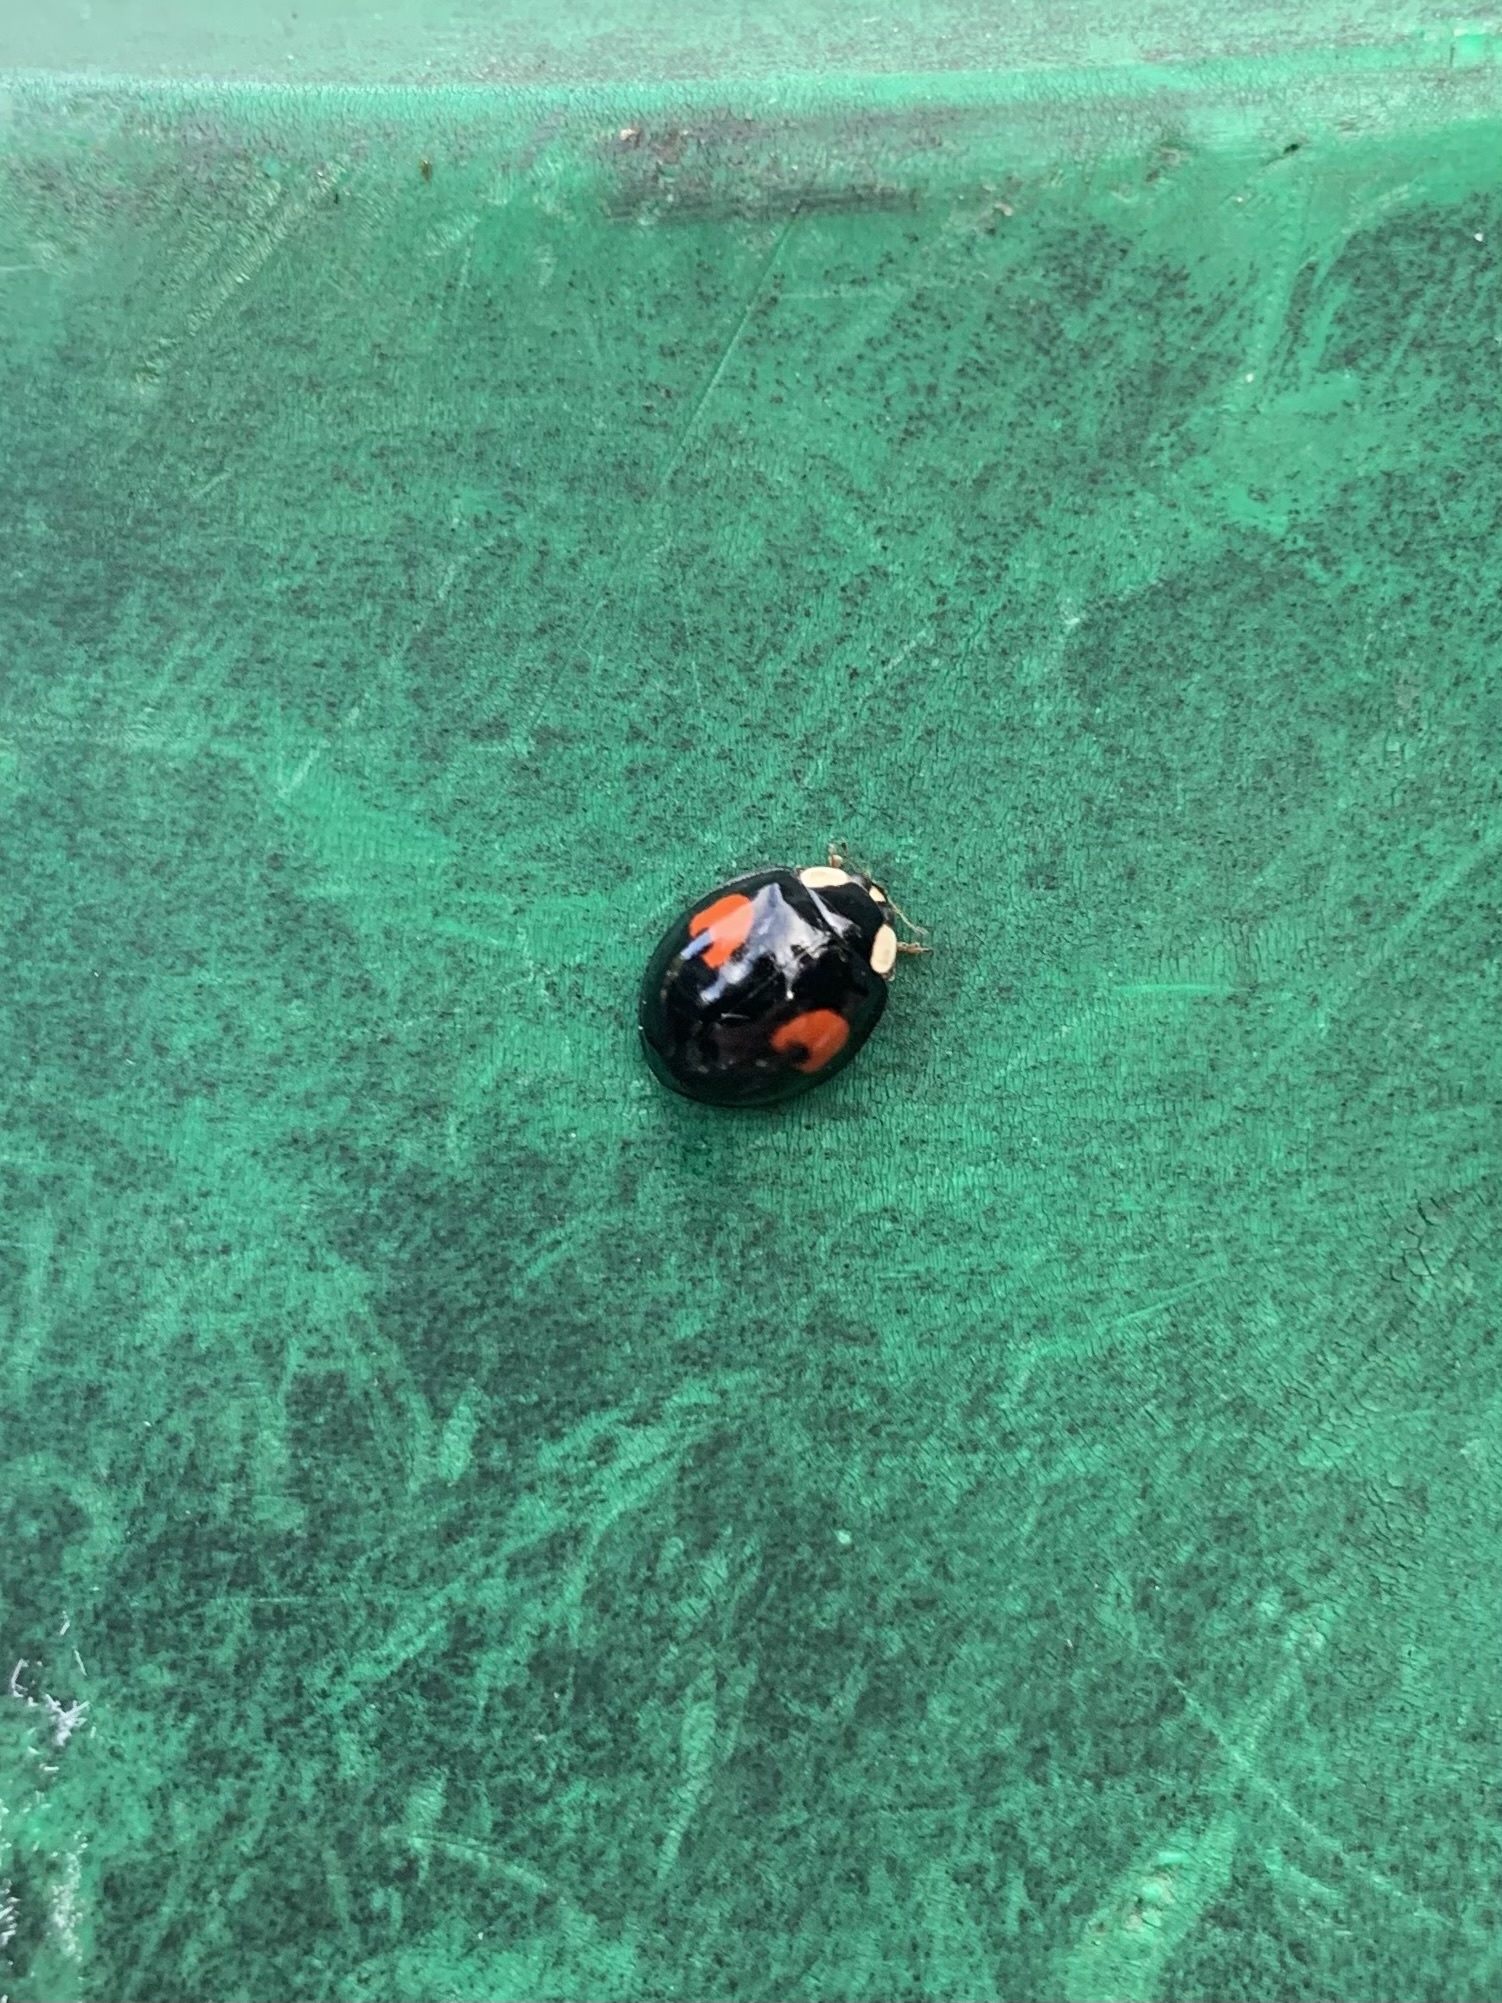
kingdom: Animalia
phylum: Arthropoda
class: Insecta
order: Coleoptera
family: Coccinellidae
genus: Harmonia
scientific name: Harmonia axyridis
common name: Harlequin ladybird
